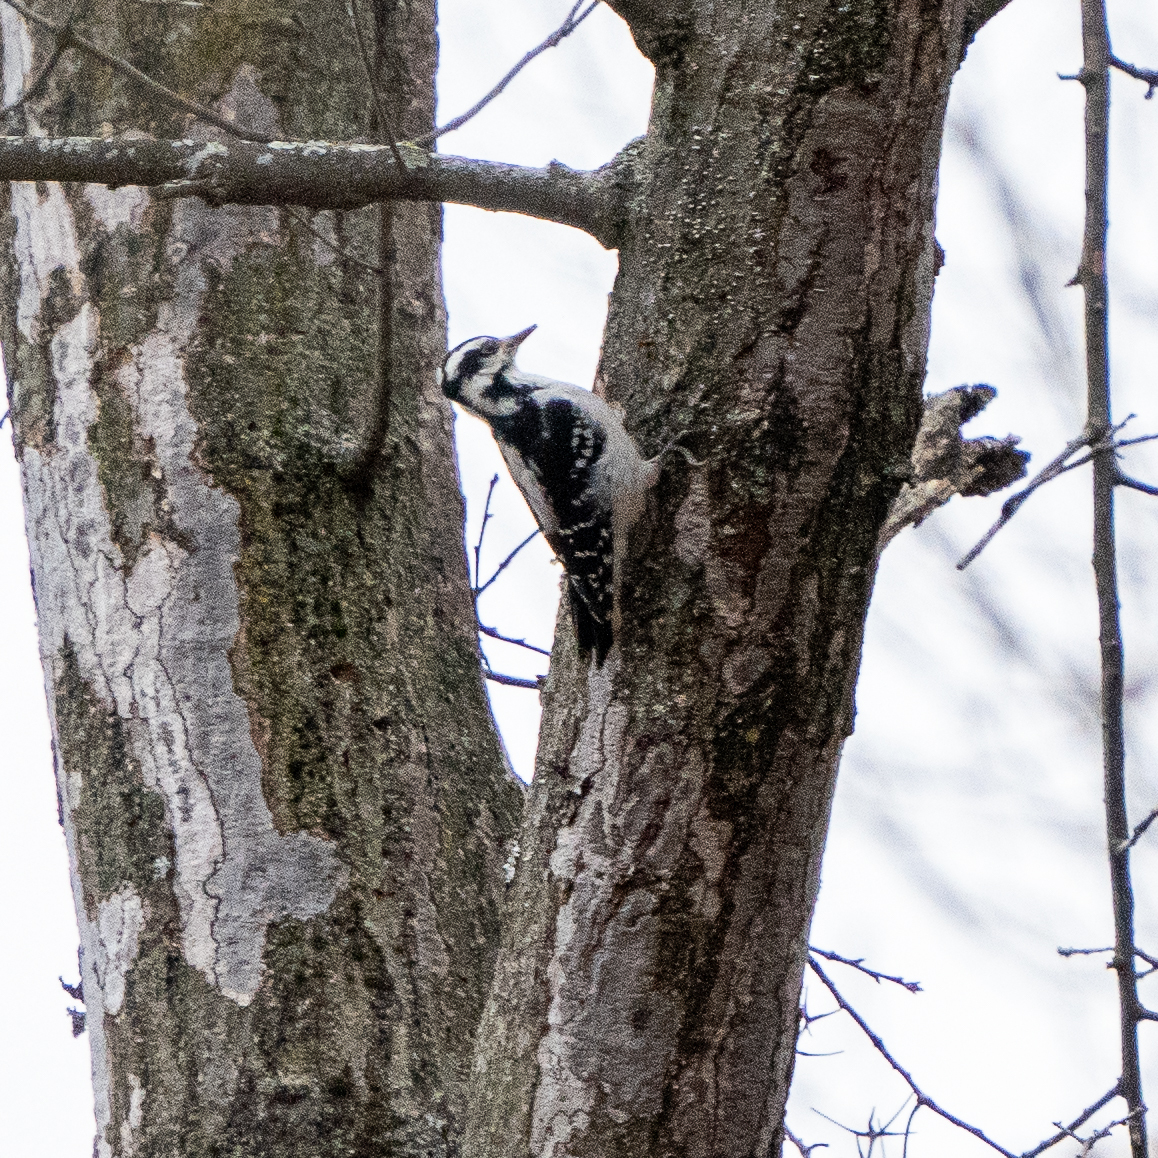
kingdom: Animalia
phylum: Chordata
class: Aves
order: Piciformes
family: Picidae
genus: Leuconotopicus
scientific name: Leuconotopicus villosus
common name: Hairy woodpecker
